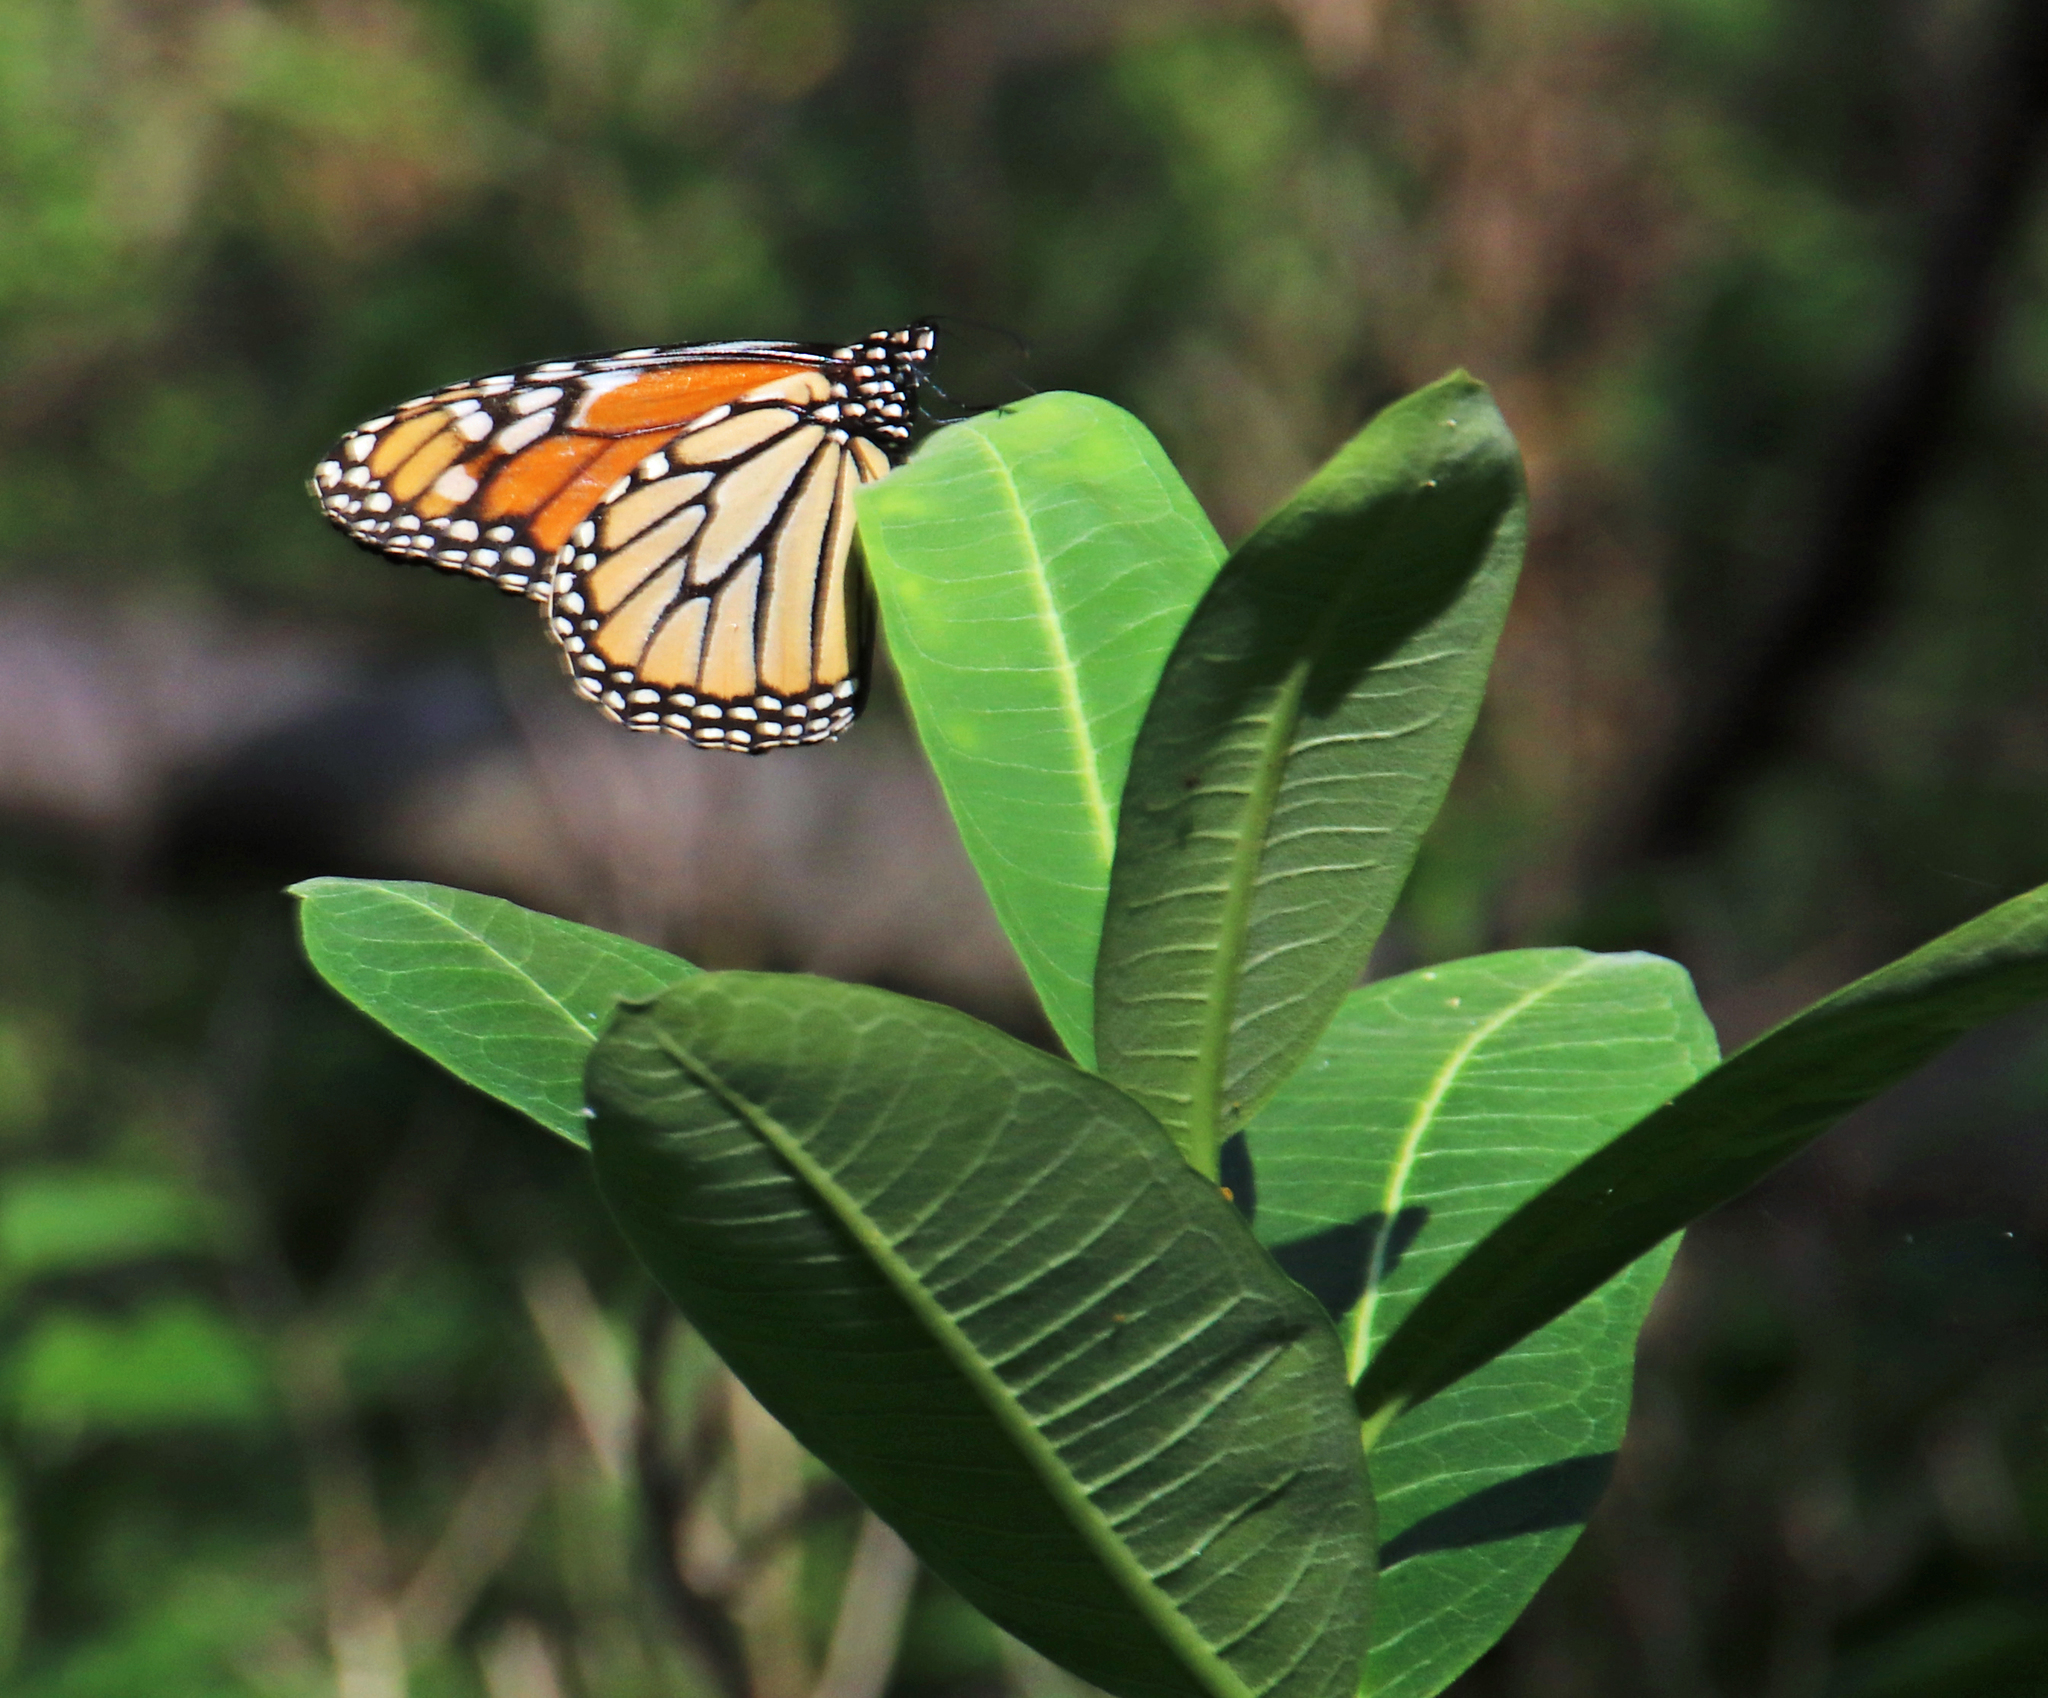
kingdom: Animalia
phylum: Arthropoda
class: Insecta
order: Lepidoptera
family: Nymphalidae
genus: Danaus
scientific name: Danaus plexippus
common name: Monarch
